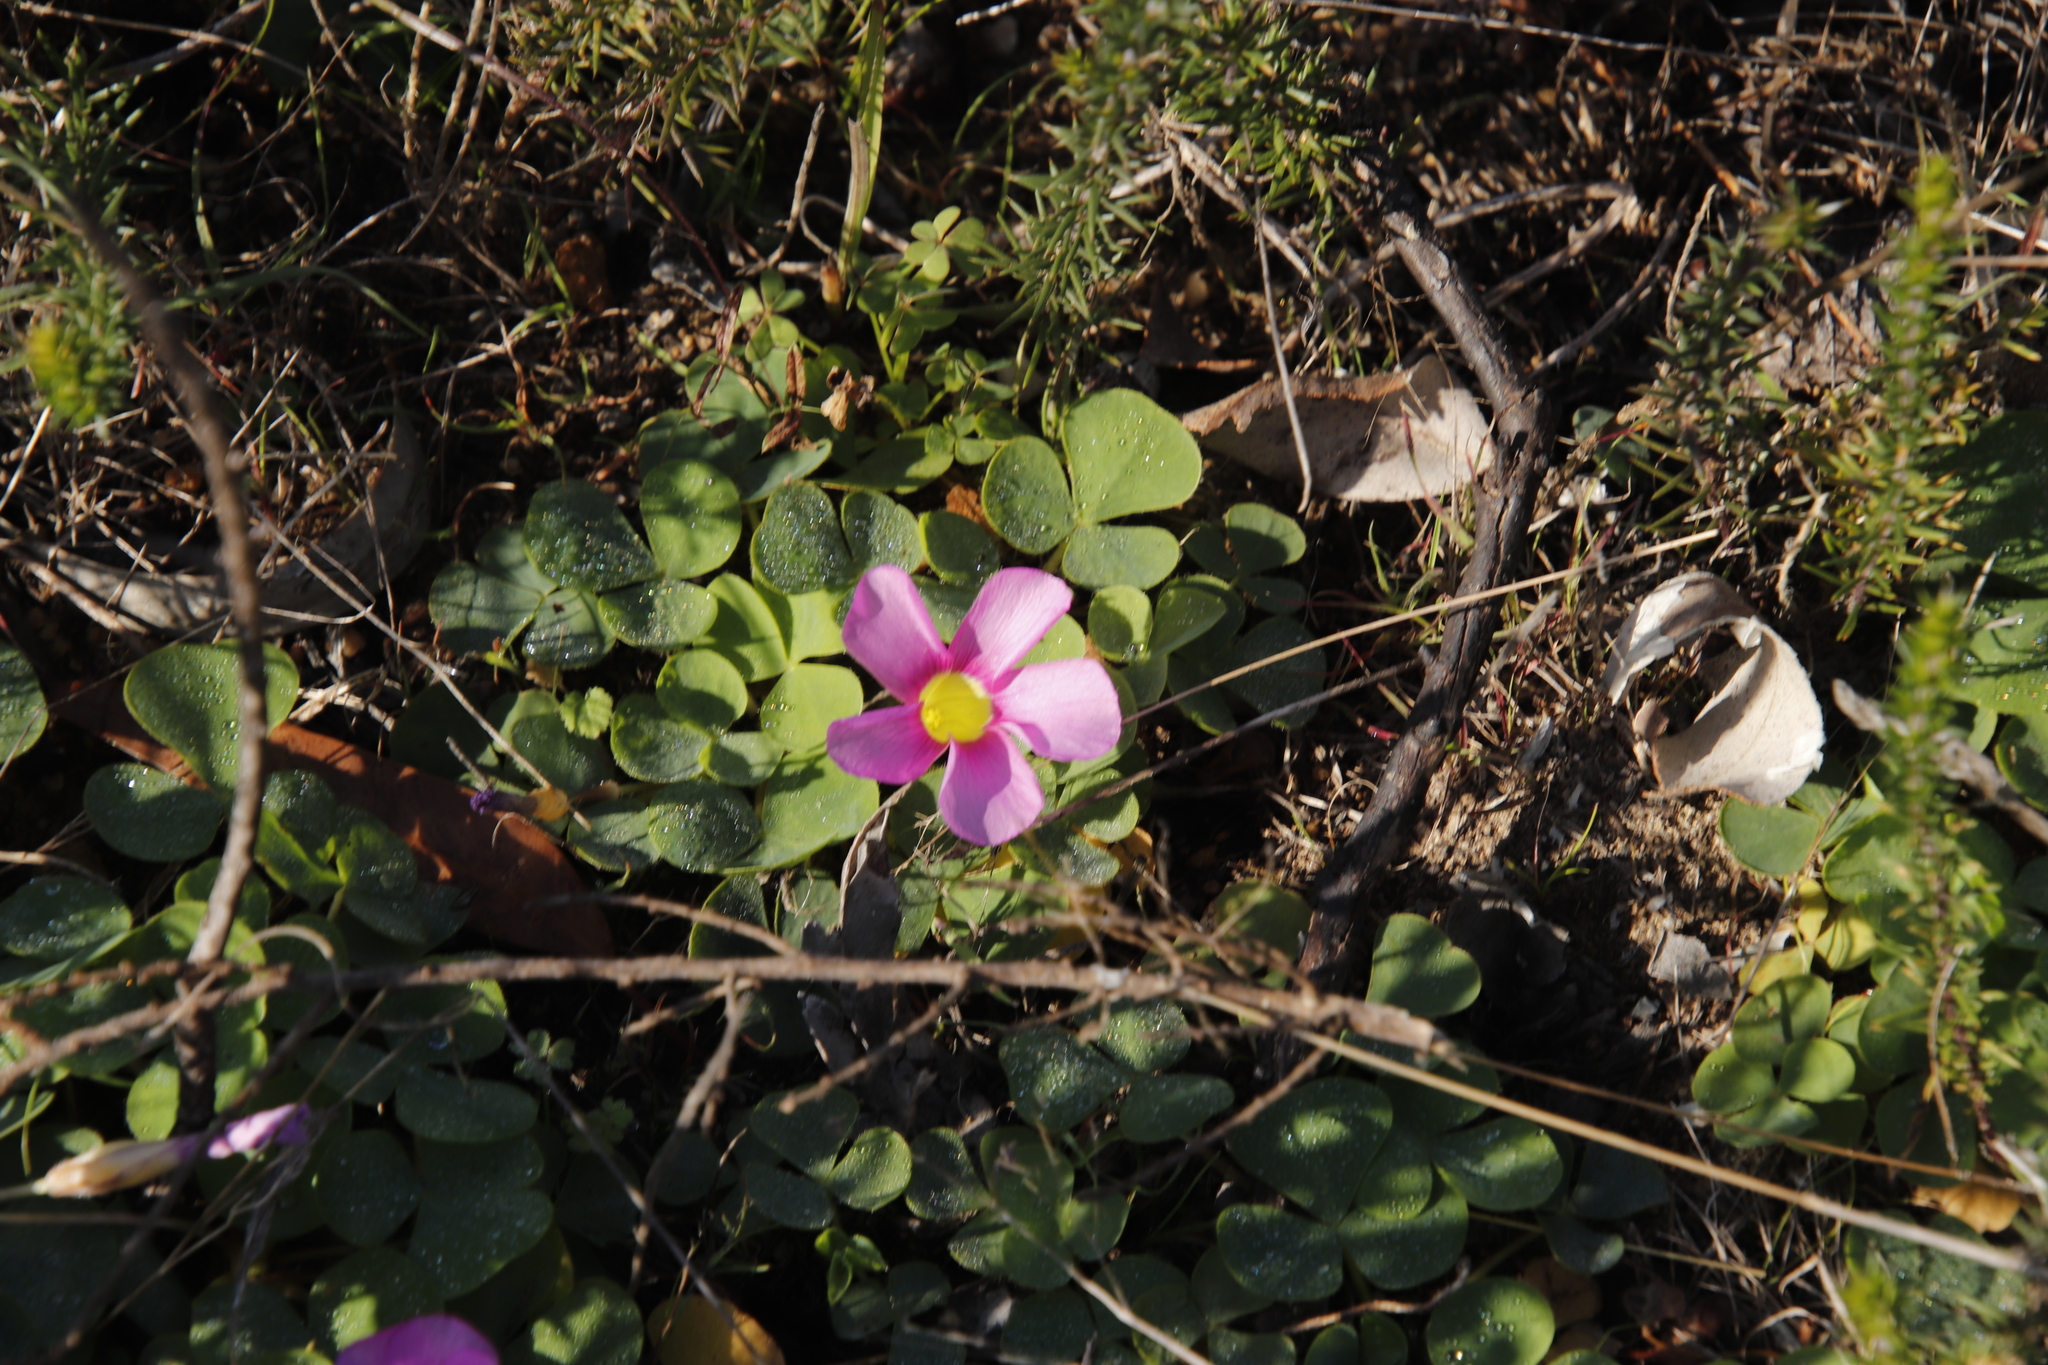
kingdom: Plantae
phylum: Tracheophyta
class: Magnoliopsida
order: Oxalidales
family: Oxalidaceae
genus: Oxalis
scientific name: Oxalis purpurea
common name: Purple woodsorrel
